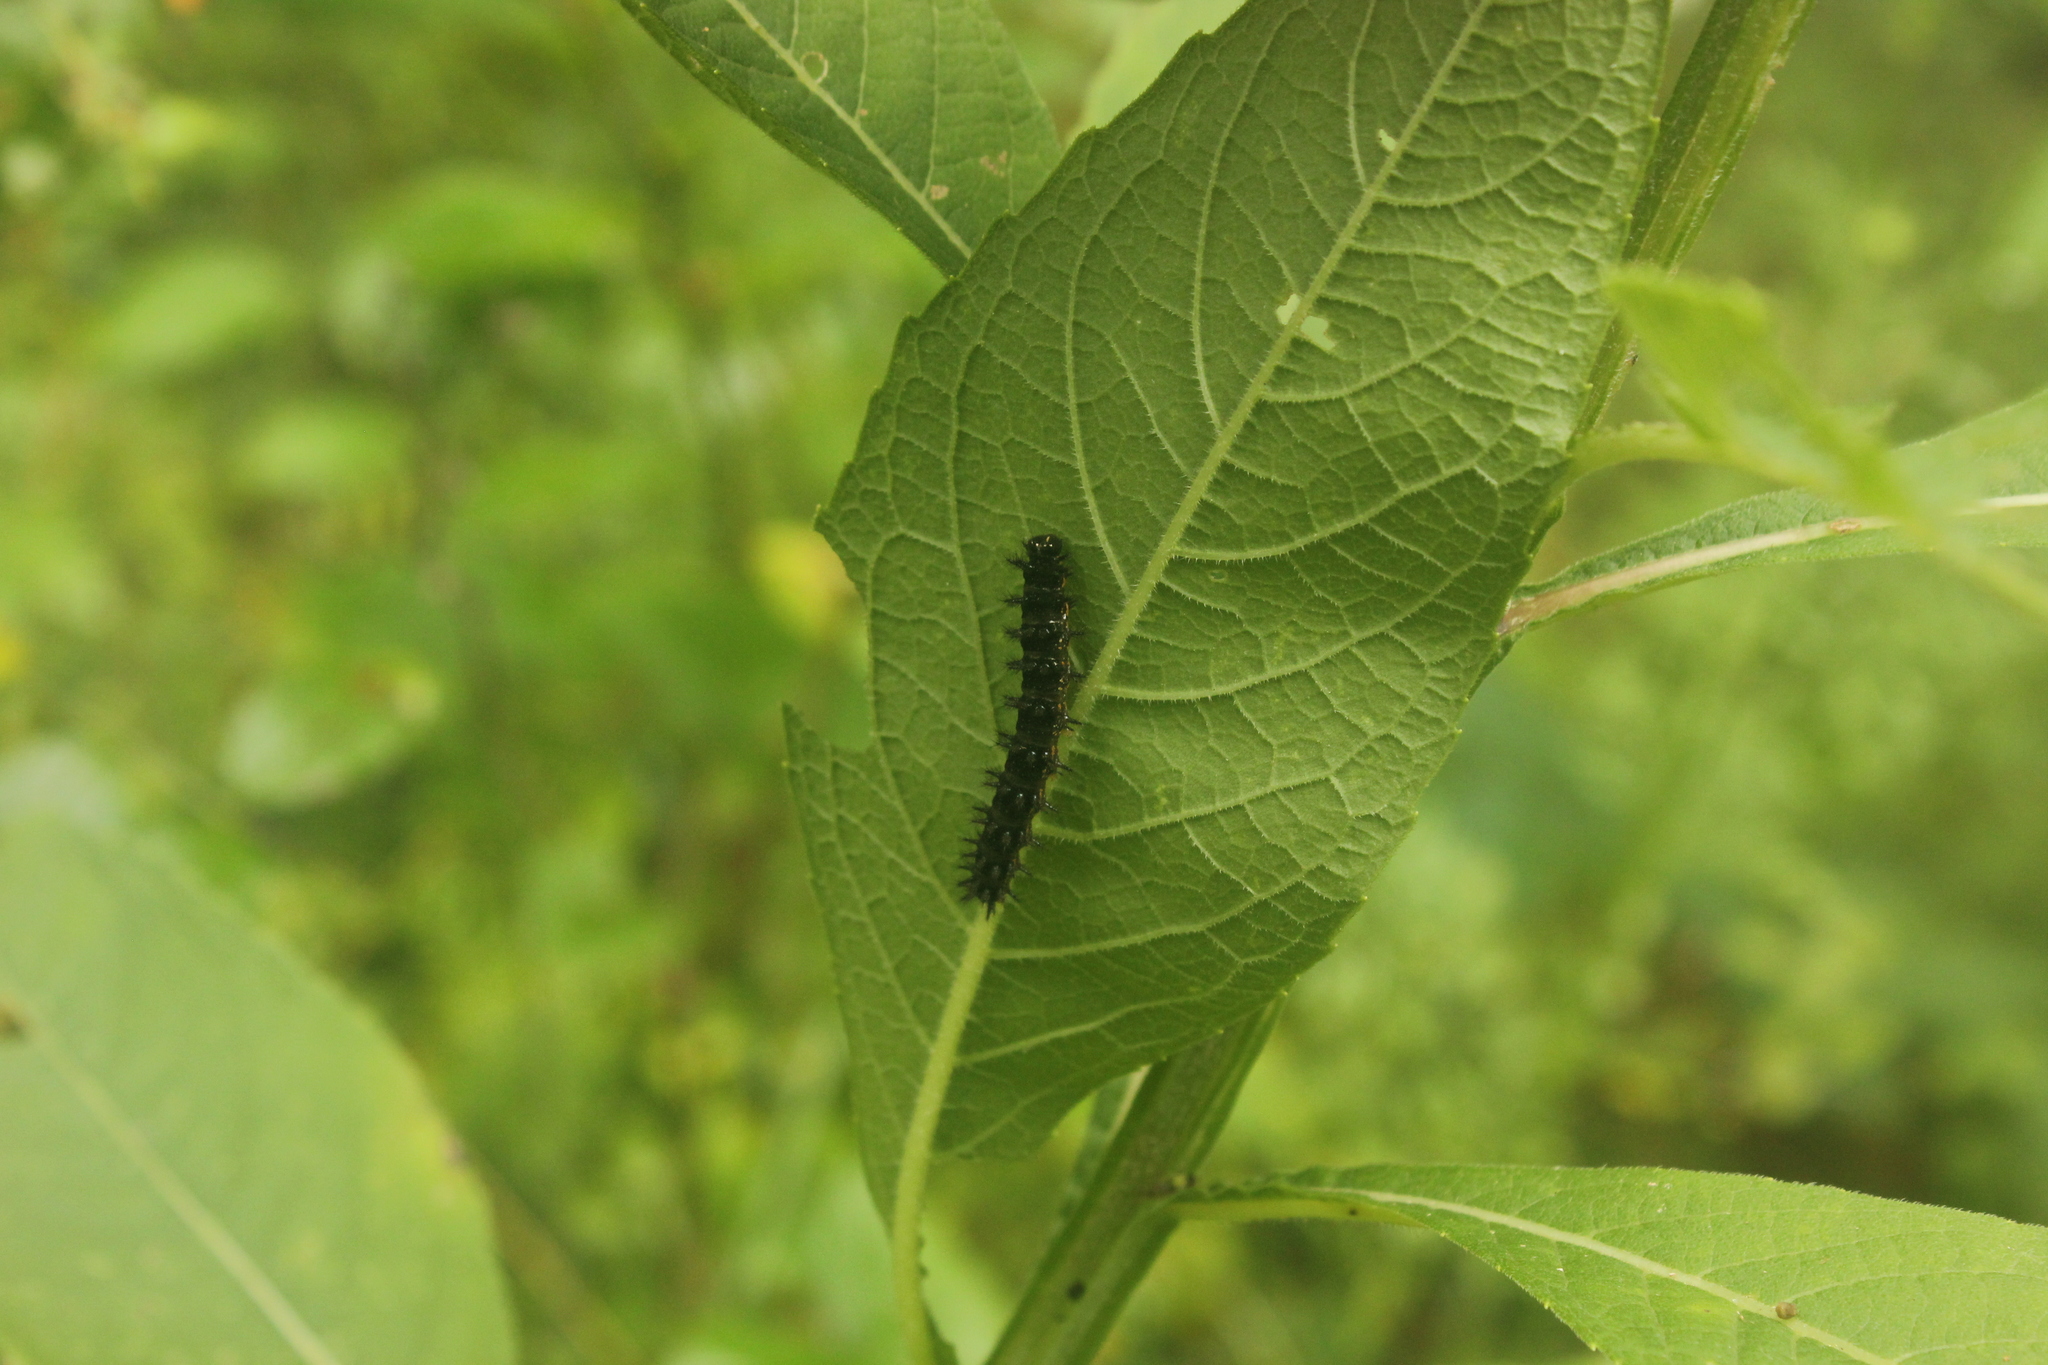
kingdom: Animalia
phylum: Arthropoda
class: Insecta
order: Lepidoptera
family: Nymphalidae
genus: Chlosyne
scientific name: Chlosyne nycteis
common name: Silvery checkerspot
